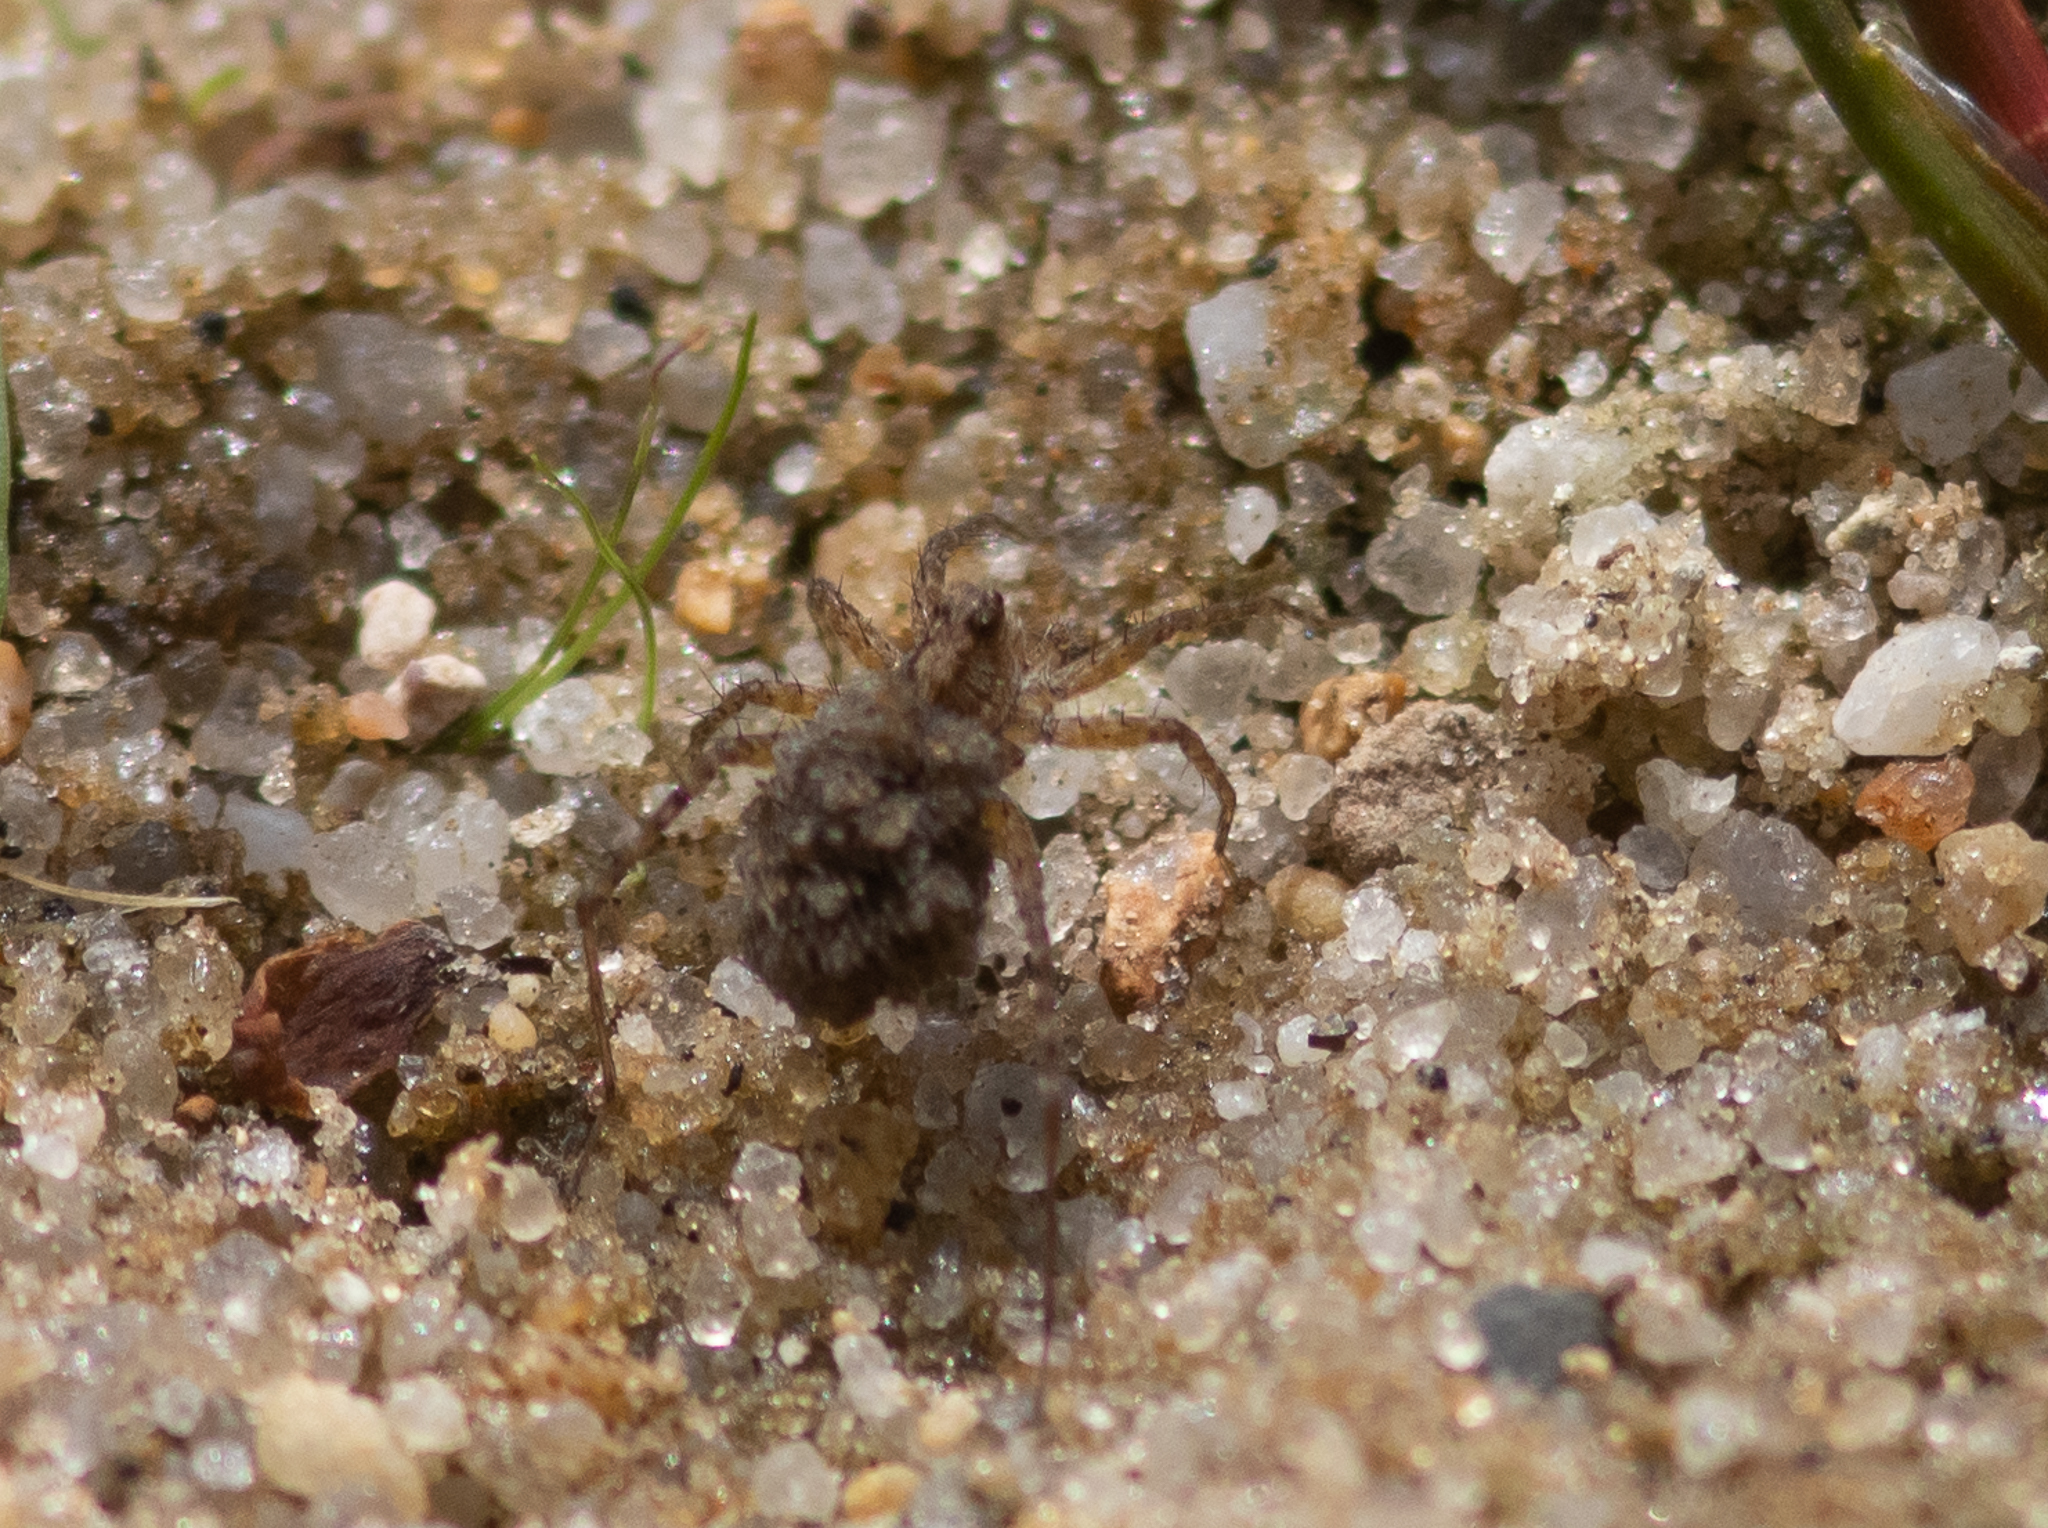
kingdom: Animalia
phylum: Arthropoda
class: Arachnida
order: Araneae
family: Lycosidae
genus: Pardosa
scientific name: Pardosa
